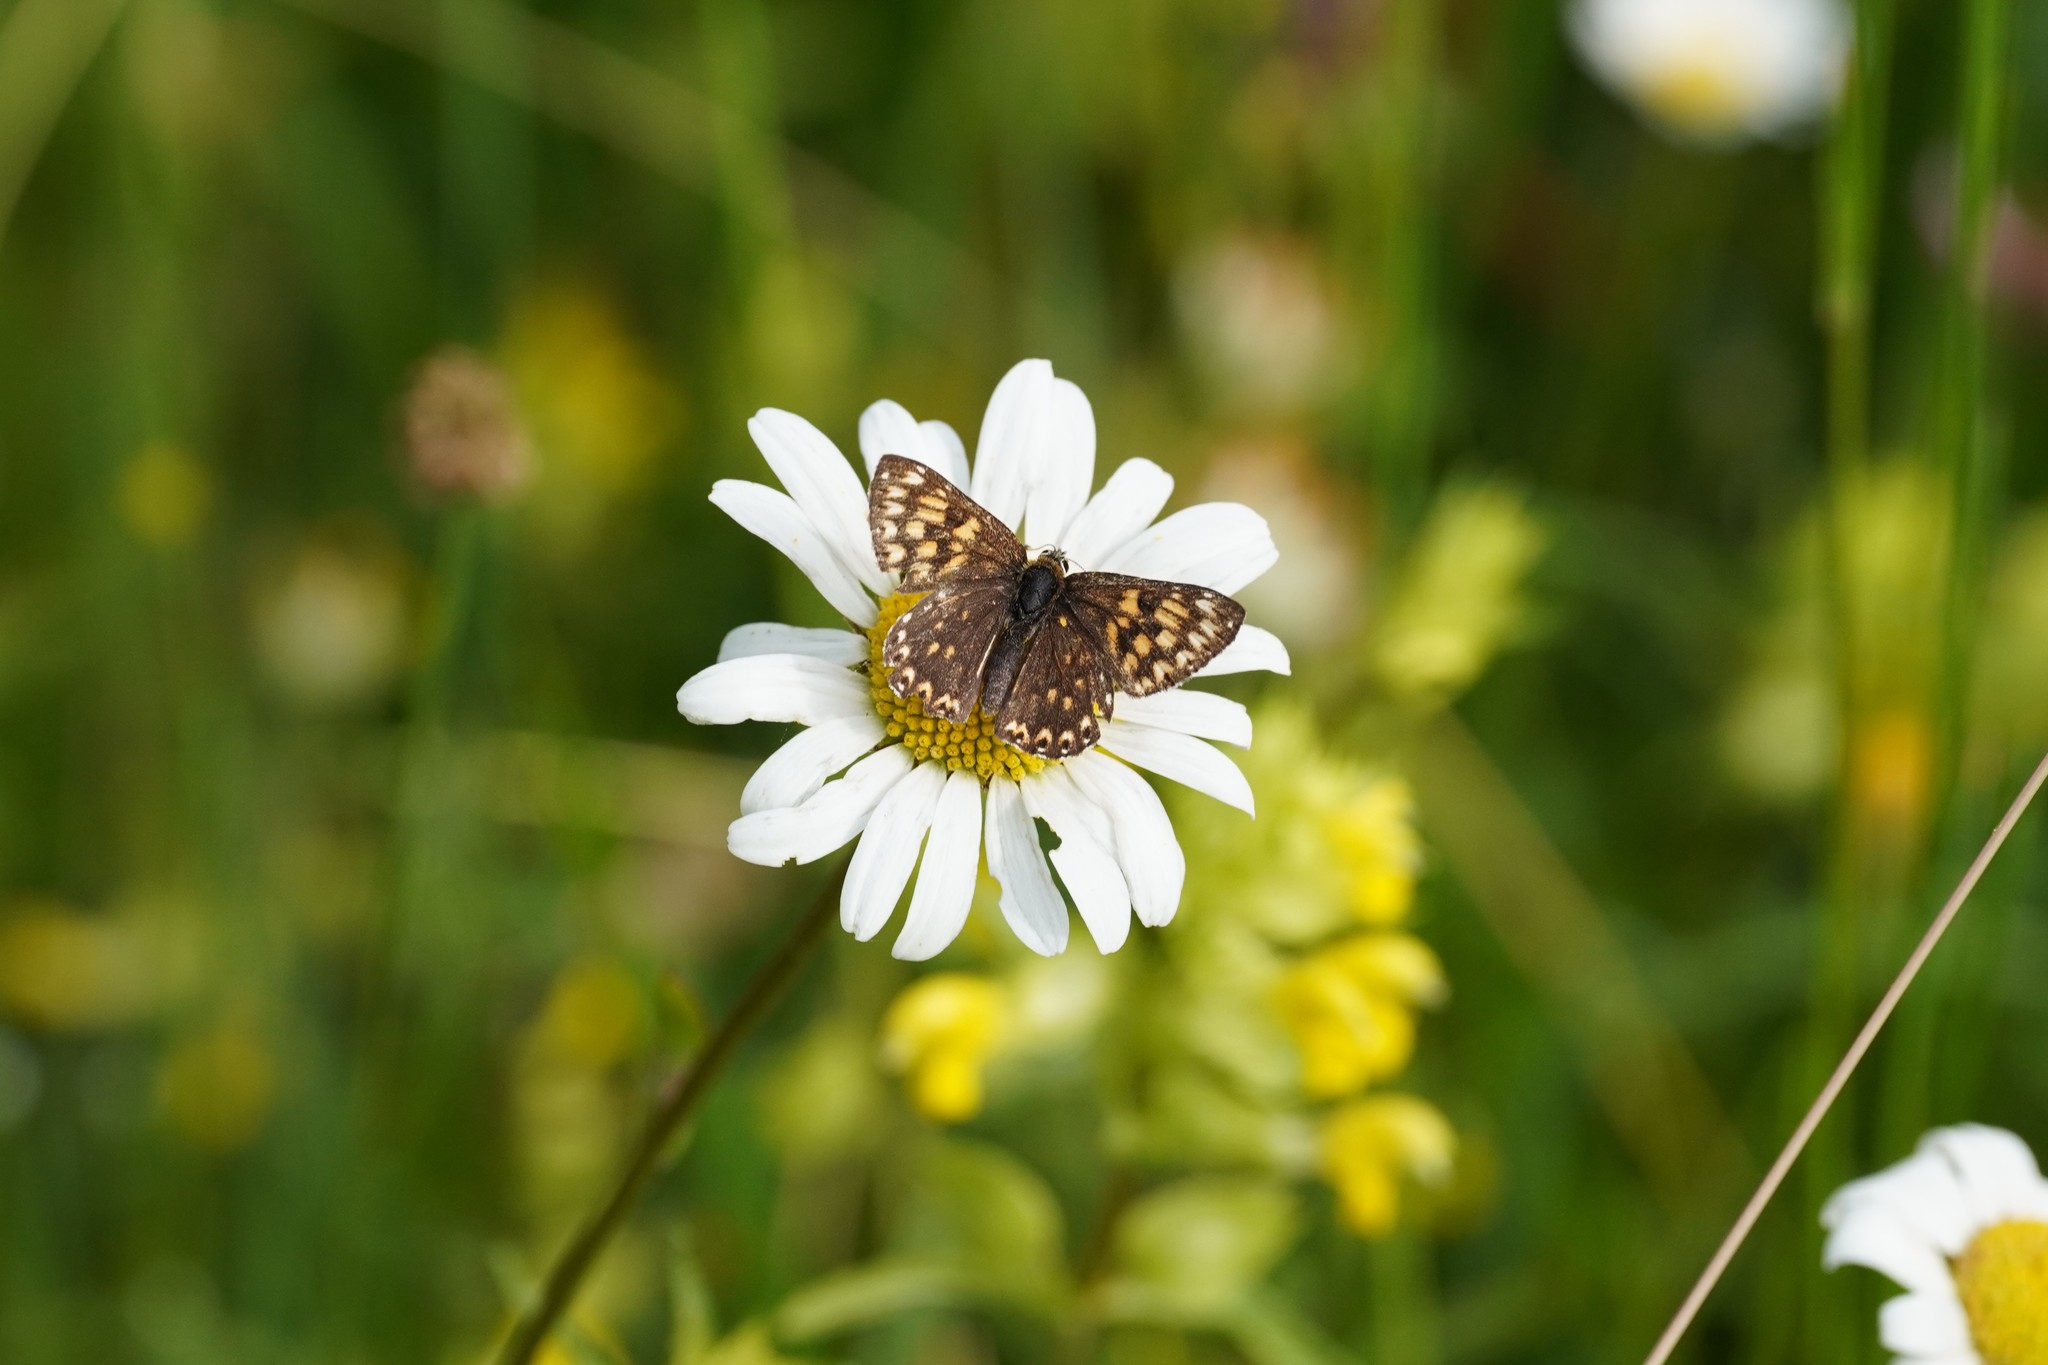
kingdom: Animalia
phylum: Arthropoda
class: Insecta
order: Lepidoptera
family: Riodinidae
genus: Hamearis
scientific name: Hamearis lucina
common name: Duke of burgundy fritillary
